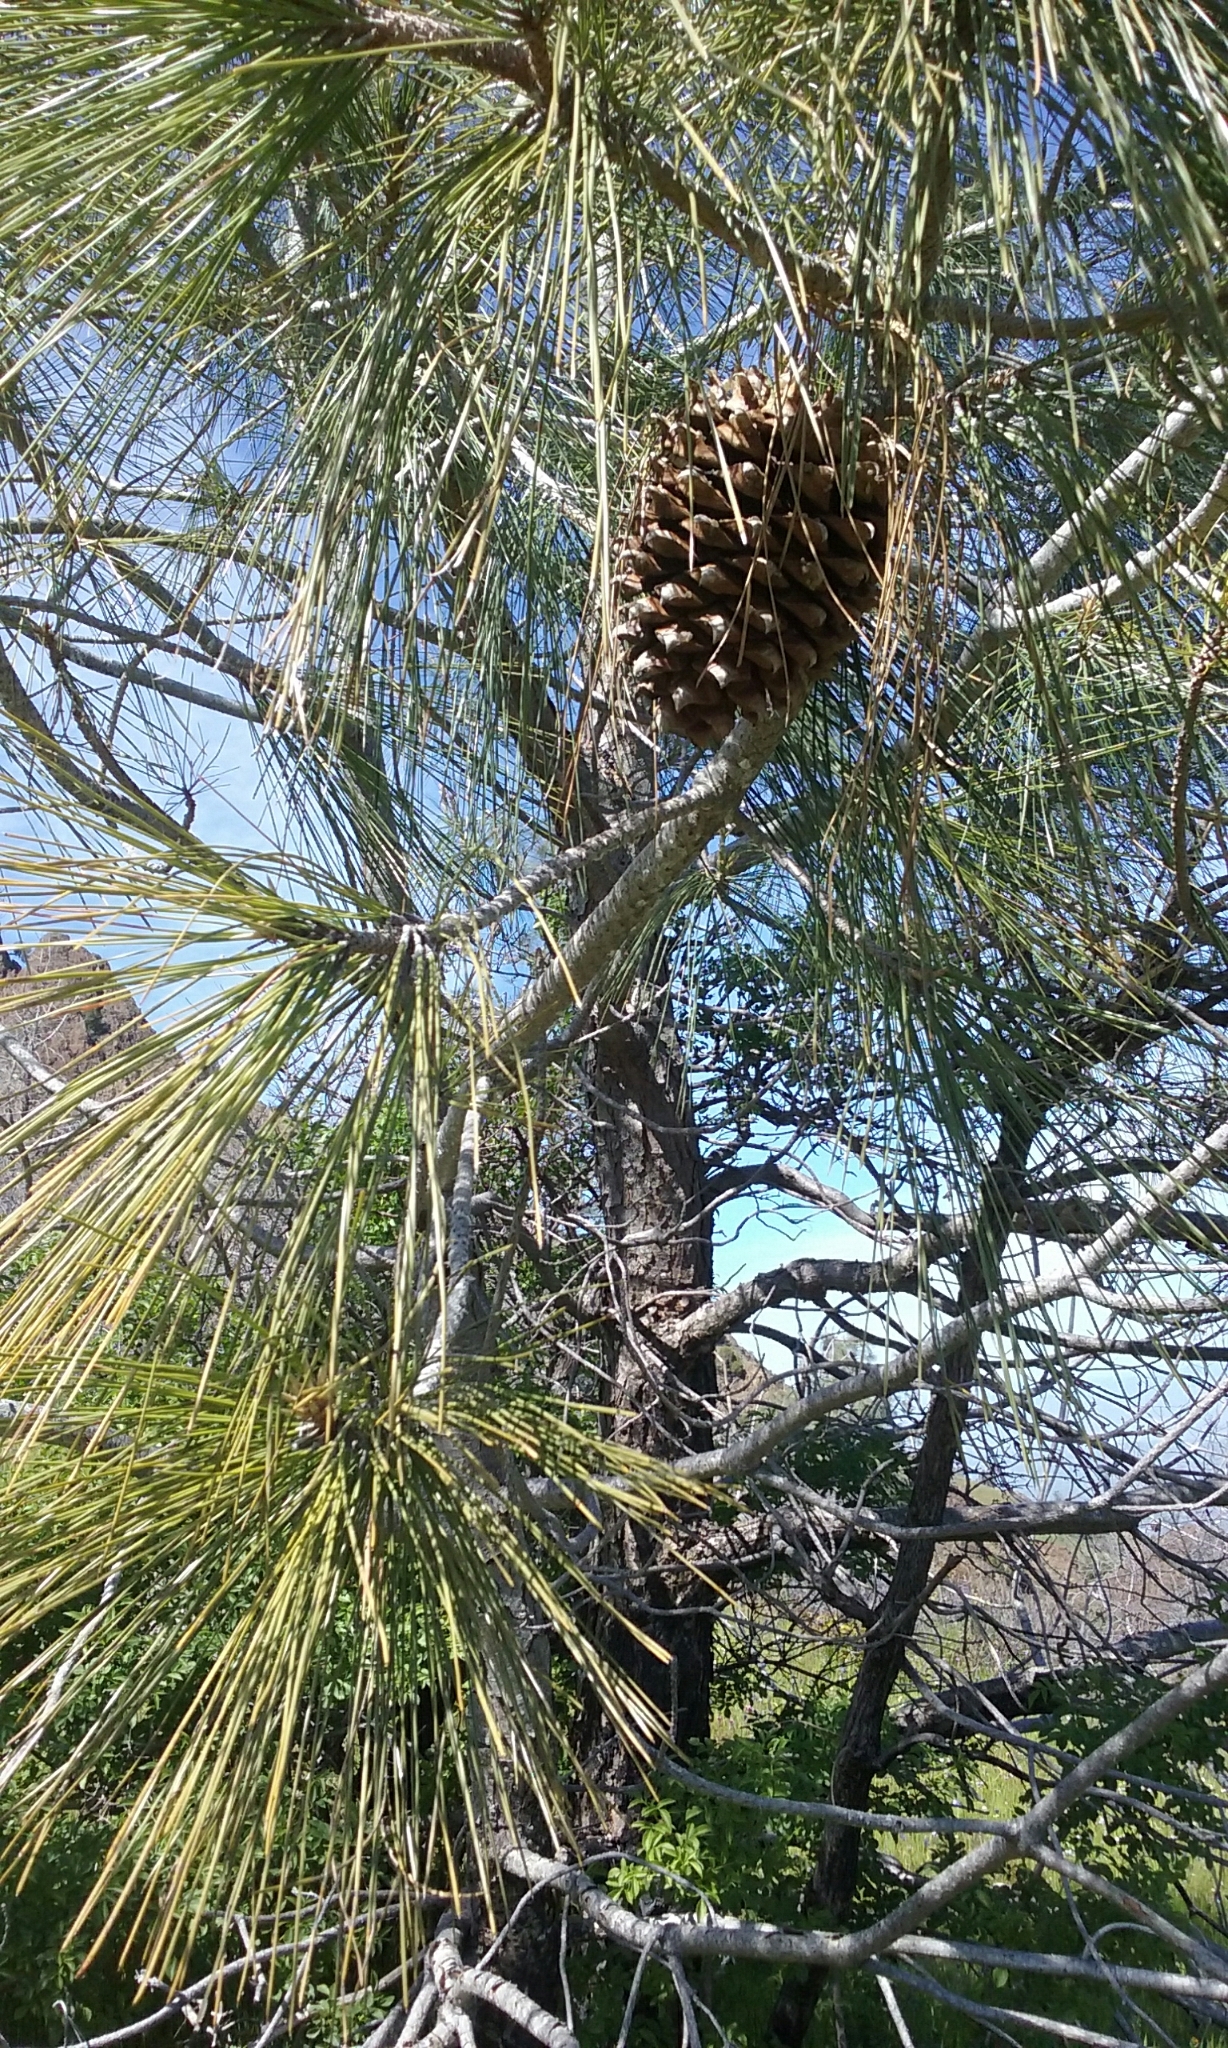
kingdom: Plantae
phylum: Tracheophyta
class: Pinopsida
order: Pinales
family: Pinaceae
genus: Pinus
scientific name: Pinus sabiniana
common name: Bull pine
